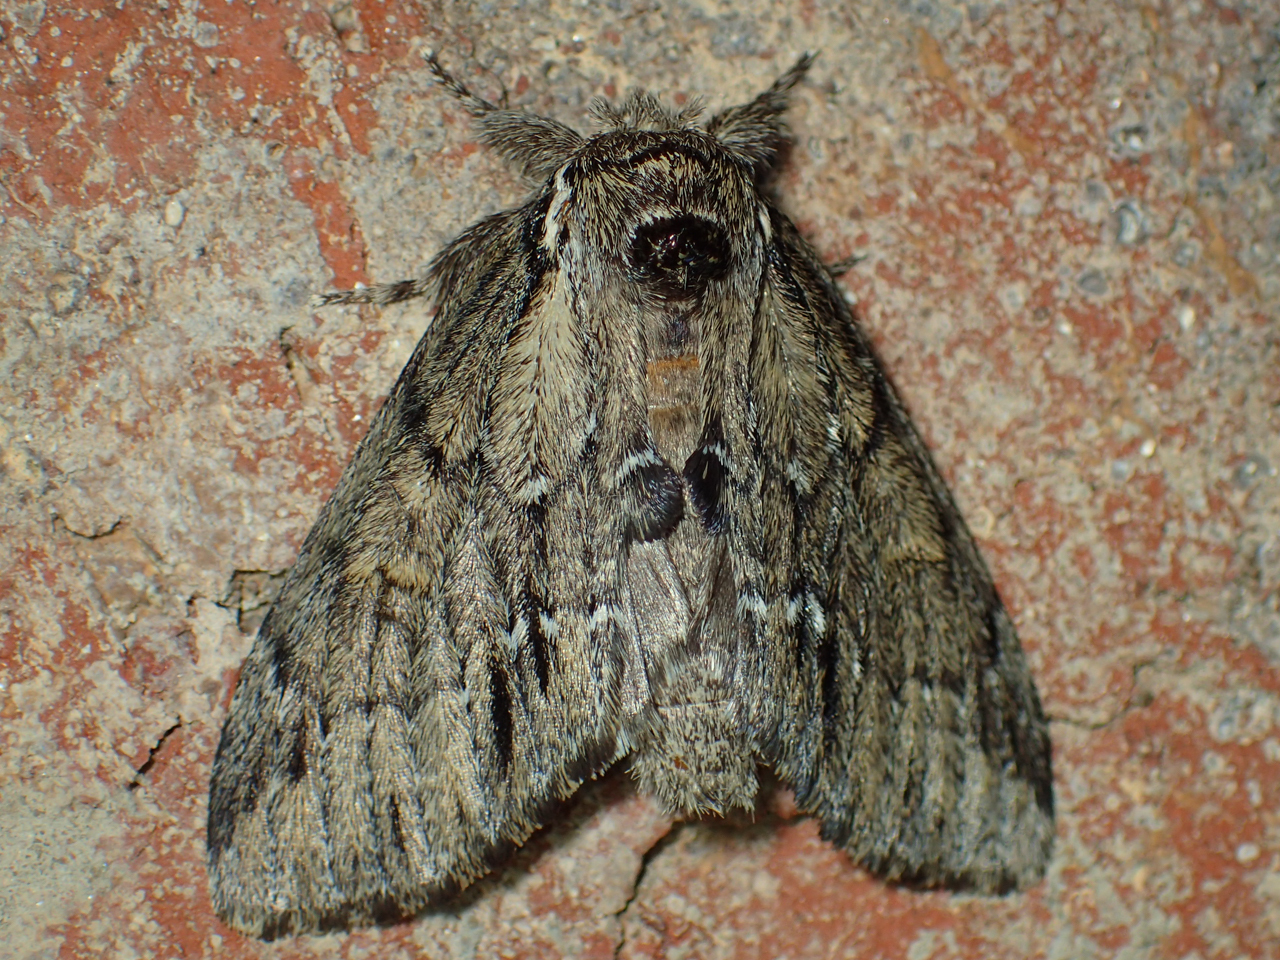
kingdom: Animalia
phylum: Arthropoda
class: Insecta
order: Lepidoptera
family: Notodontidae
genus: Paraeschra
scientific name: Paraeschra georgica
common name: Georgian prominent
